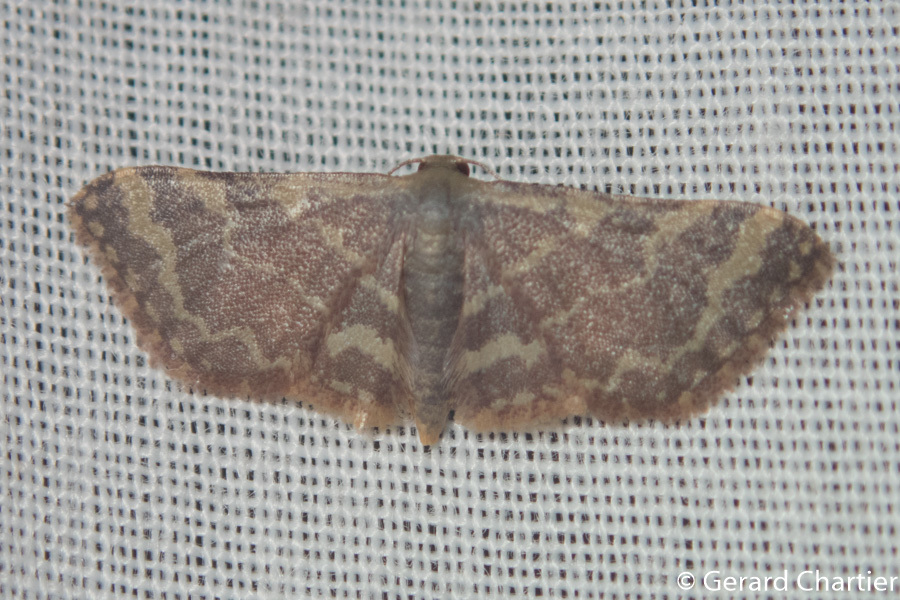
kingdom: Animalia
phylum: Arthropoda
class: Insecta
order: Lepidoptera
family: Geometridae
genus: Lophophleps
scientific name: Lophophleps purpurea
